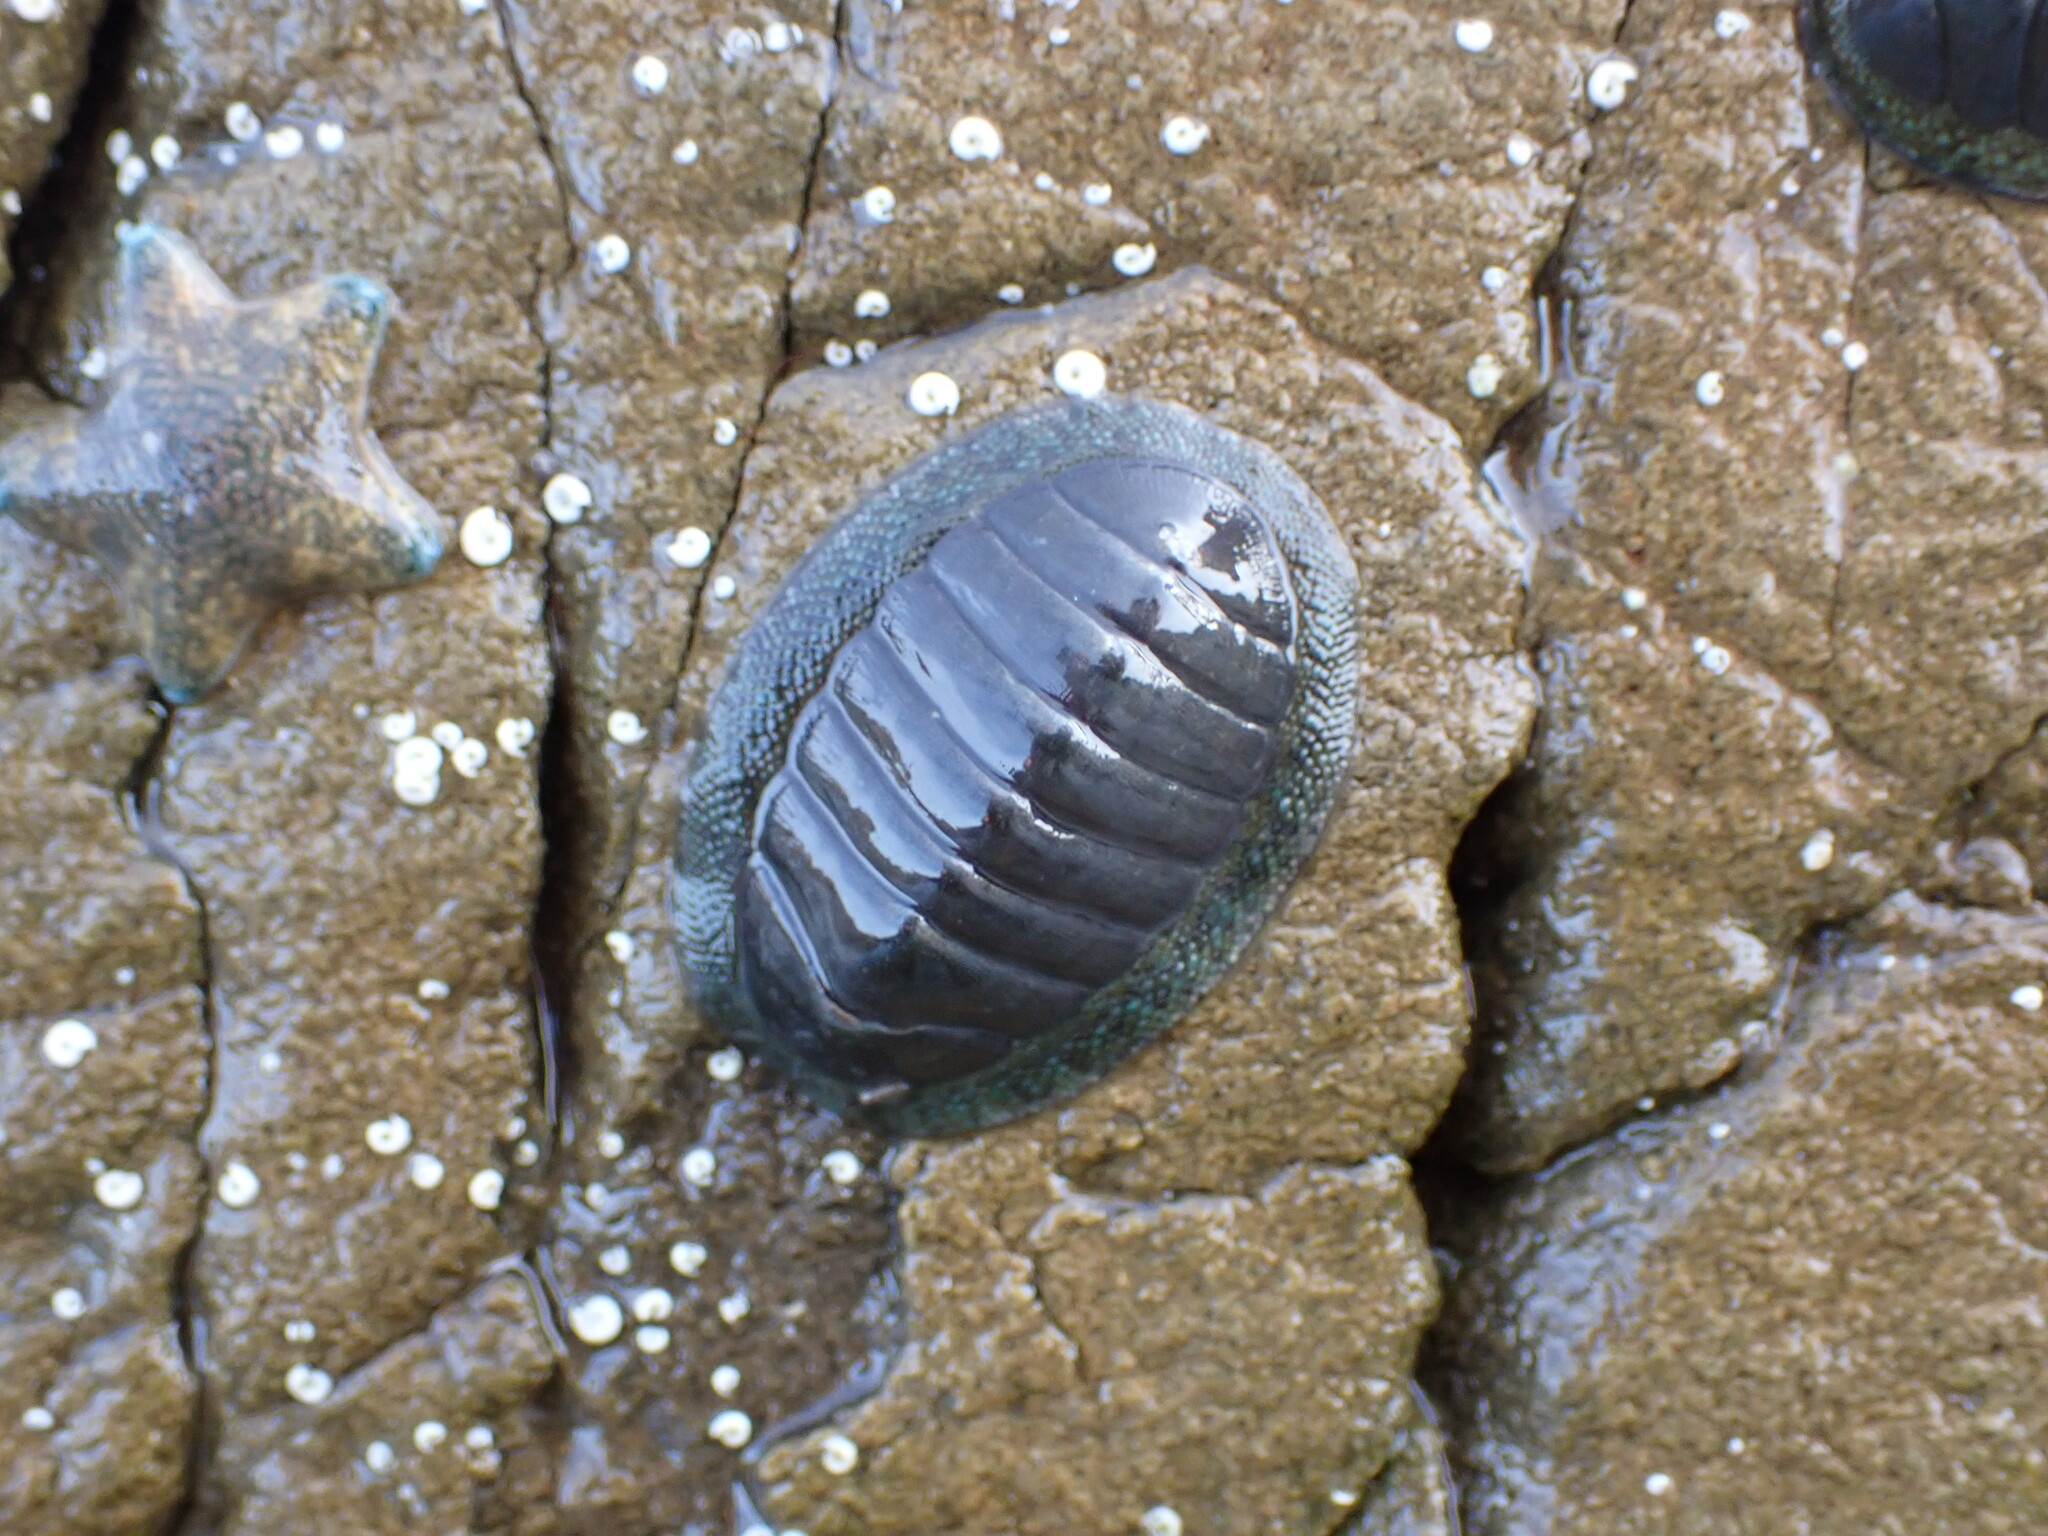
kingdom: Animalia
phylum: Mollusca
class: Polyplacophora
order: Chitonida
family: Chitonidae
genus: Chiton
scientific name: Chiton glaucus
